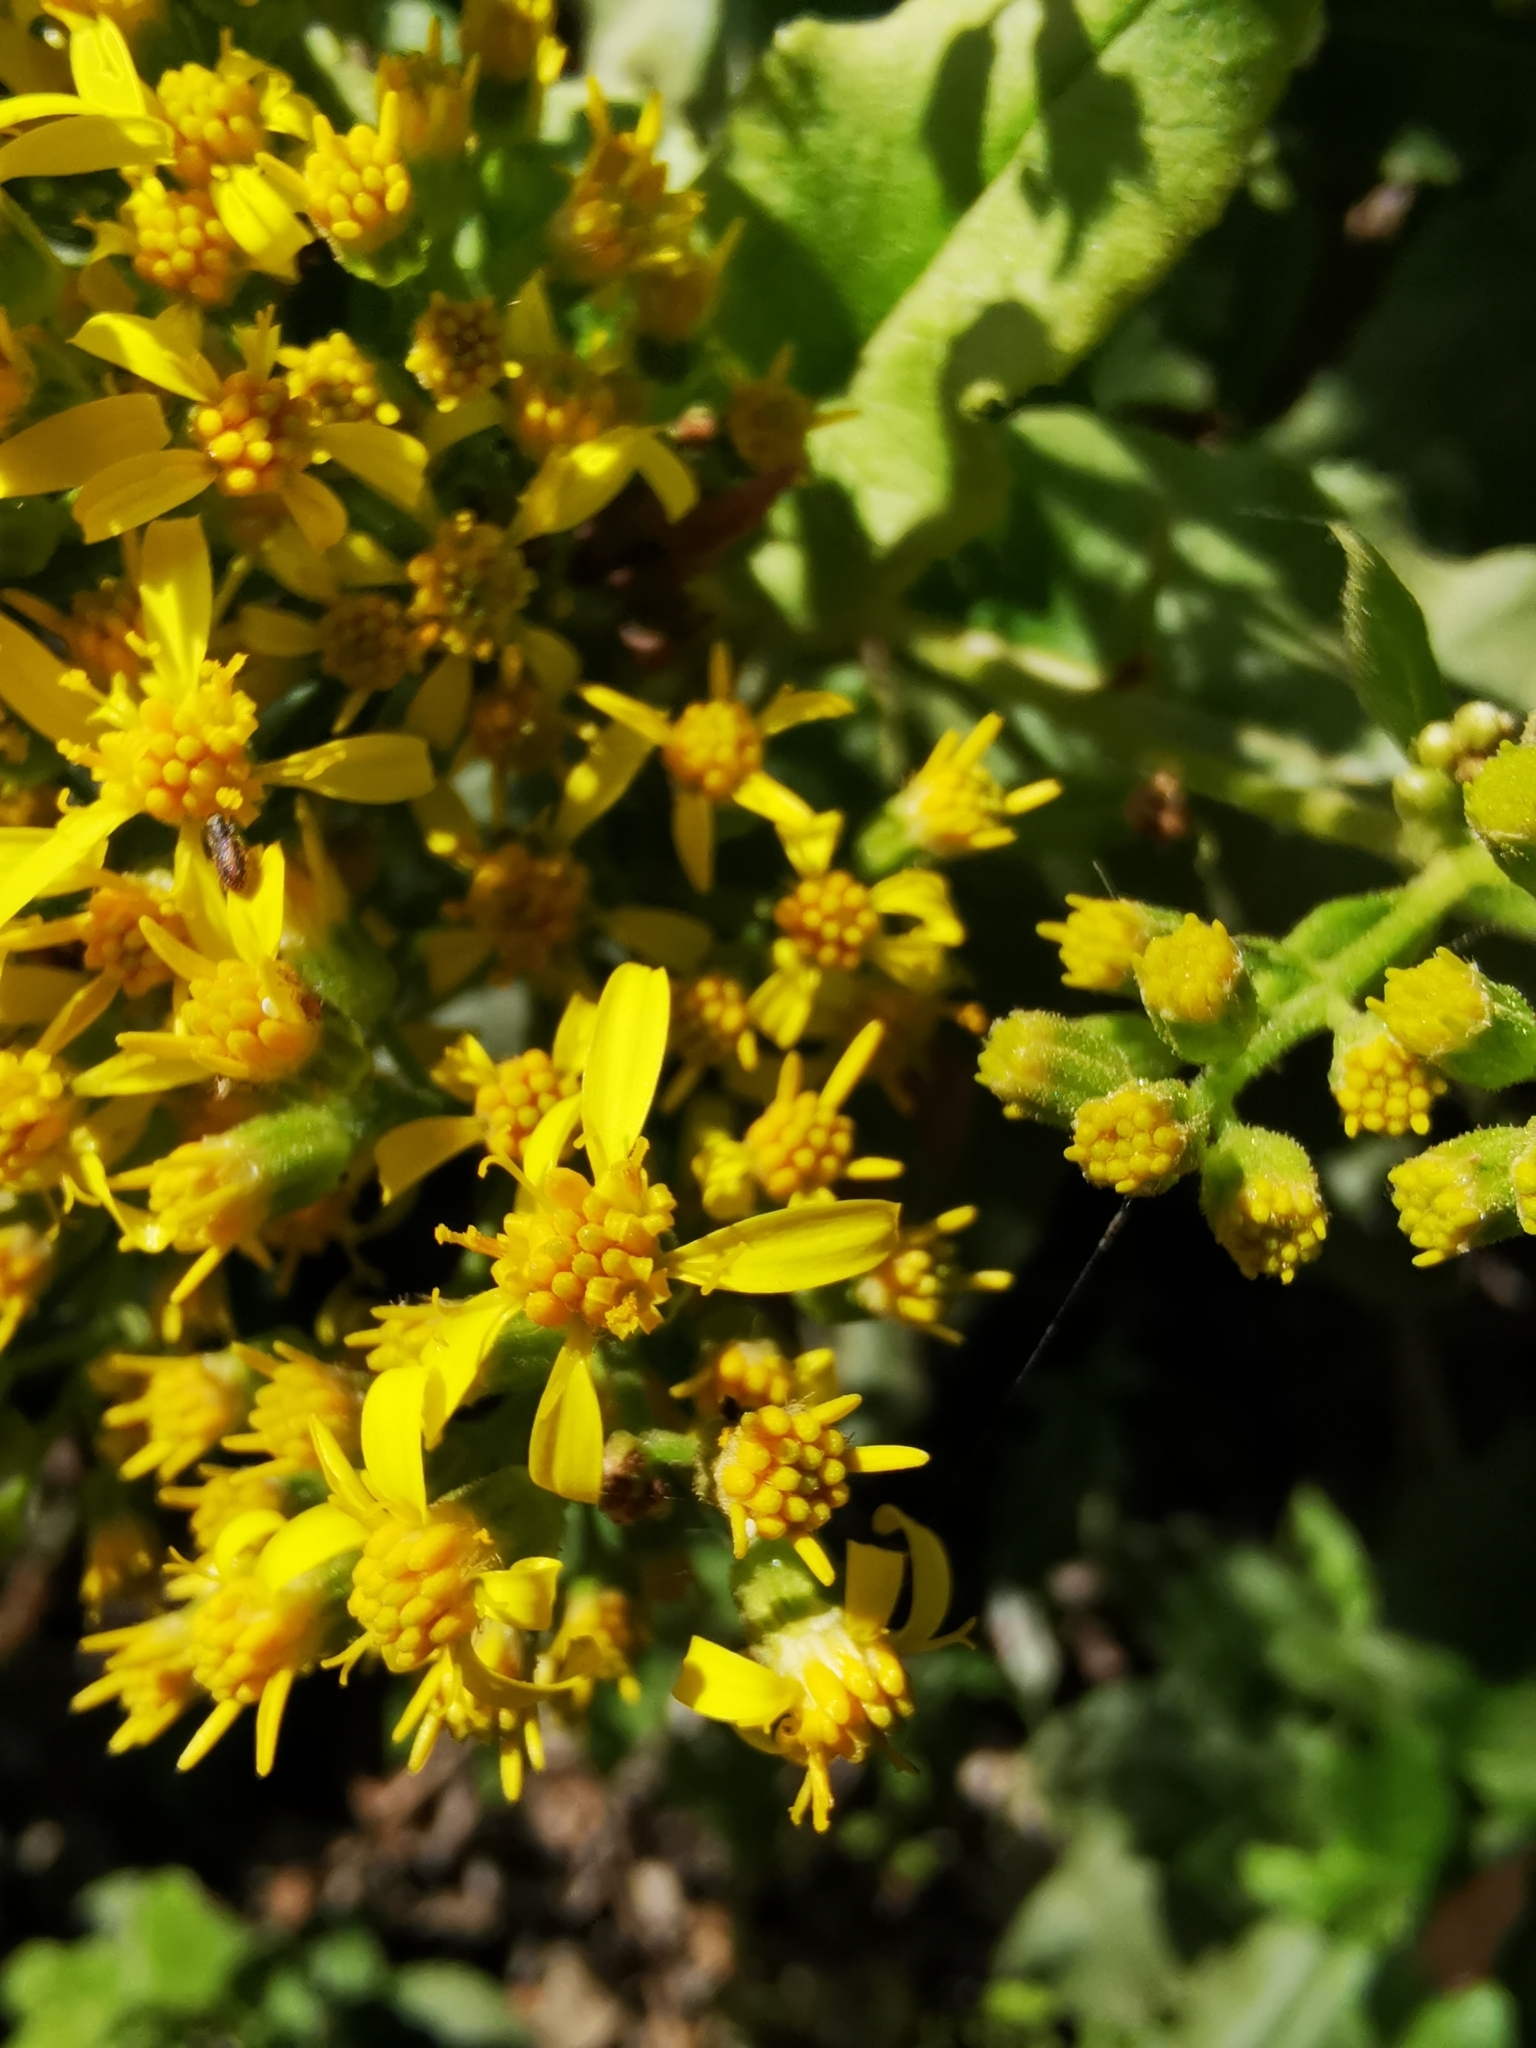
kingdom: Plantae
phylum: Tracheophyta
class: Magnoliopsida
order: Asterales
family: Asteraceae
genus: Acrisione
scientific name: Acrisione denticulata
